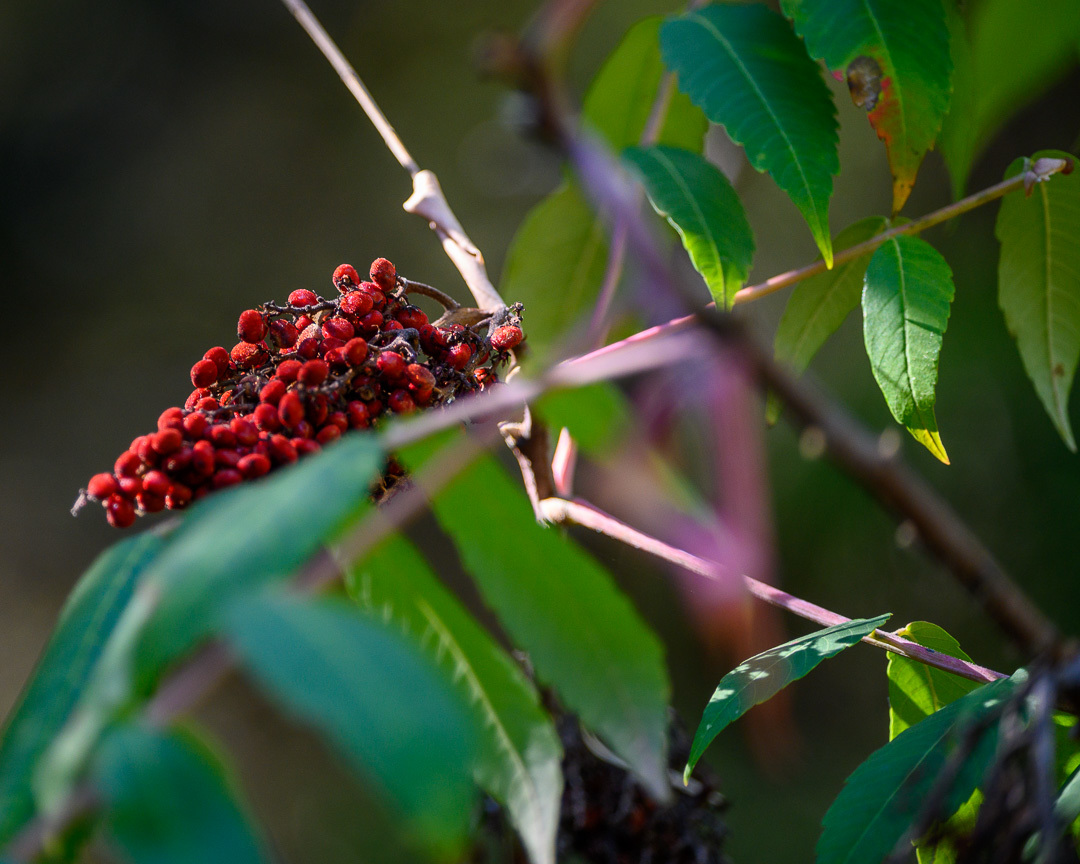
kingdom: Plantae
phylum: Tracheophyta
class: Magnoliopsida
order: Sapindales
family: Anacardiaceae
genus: Rhus
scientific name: Rhus glabra
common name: Scarlet sumac
